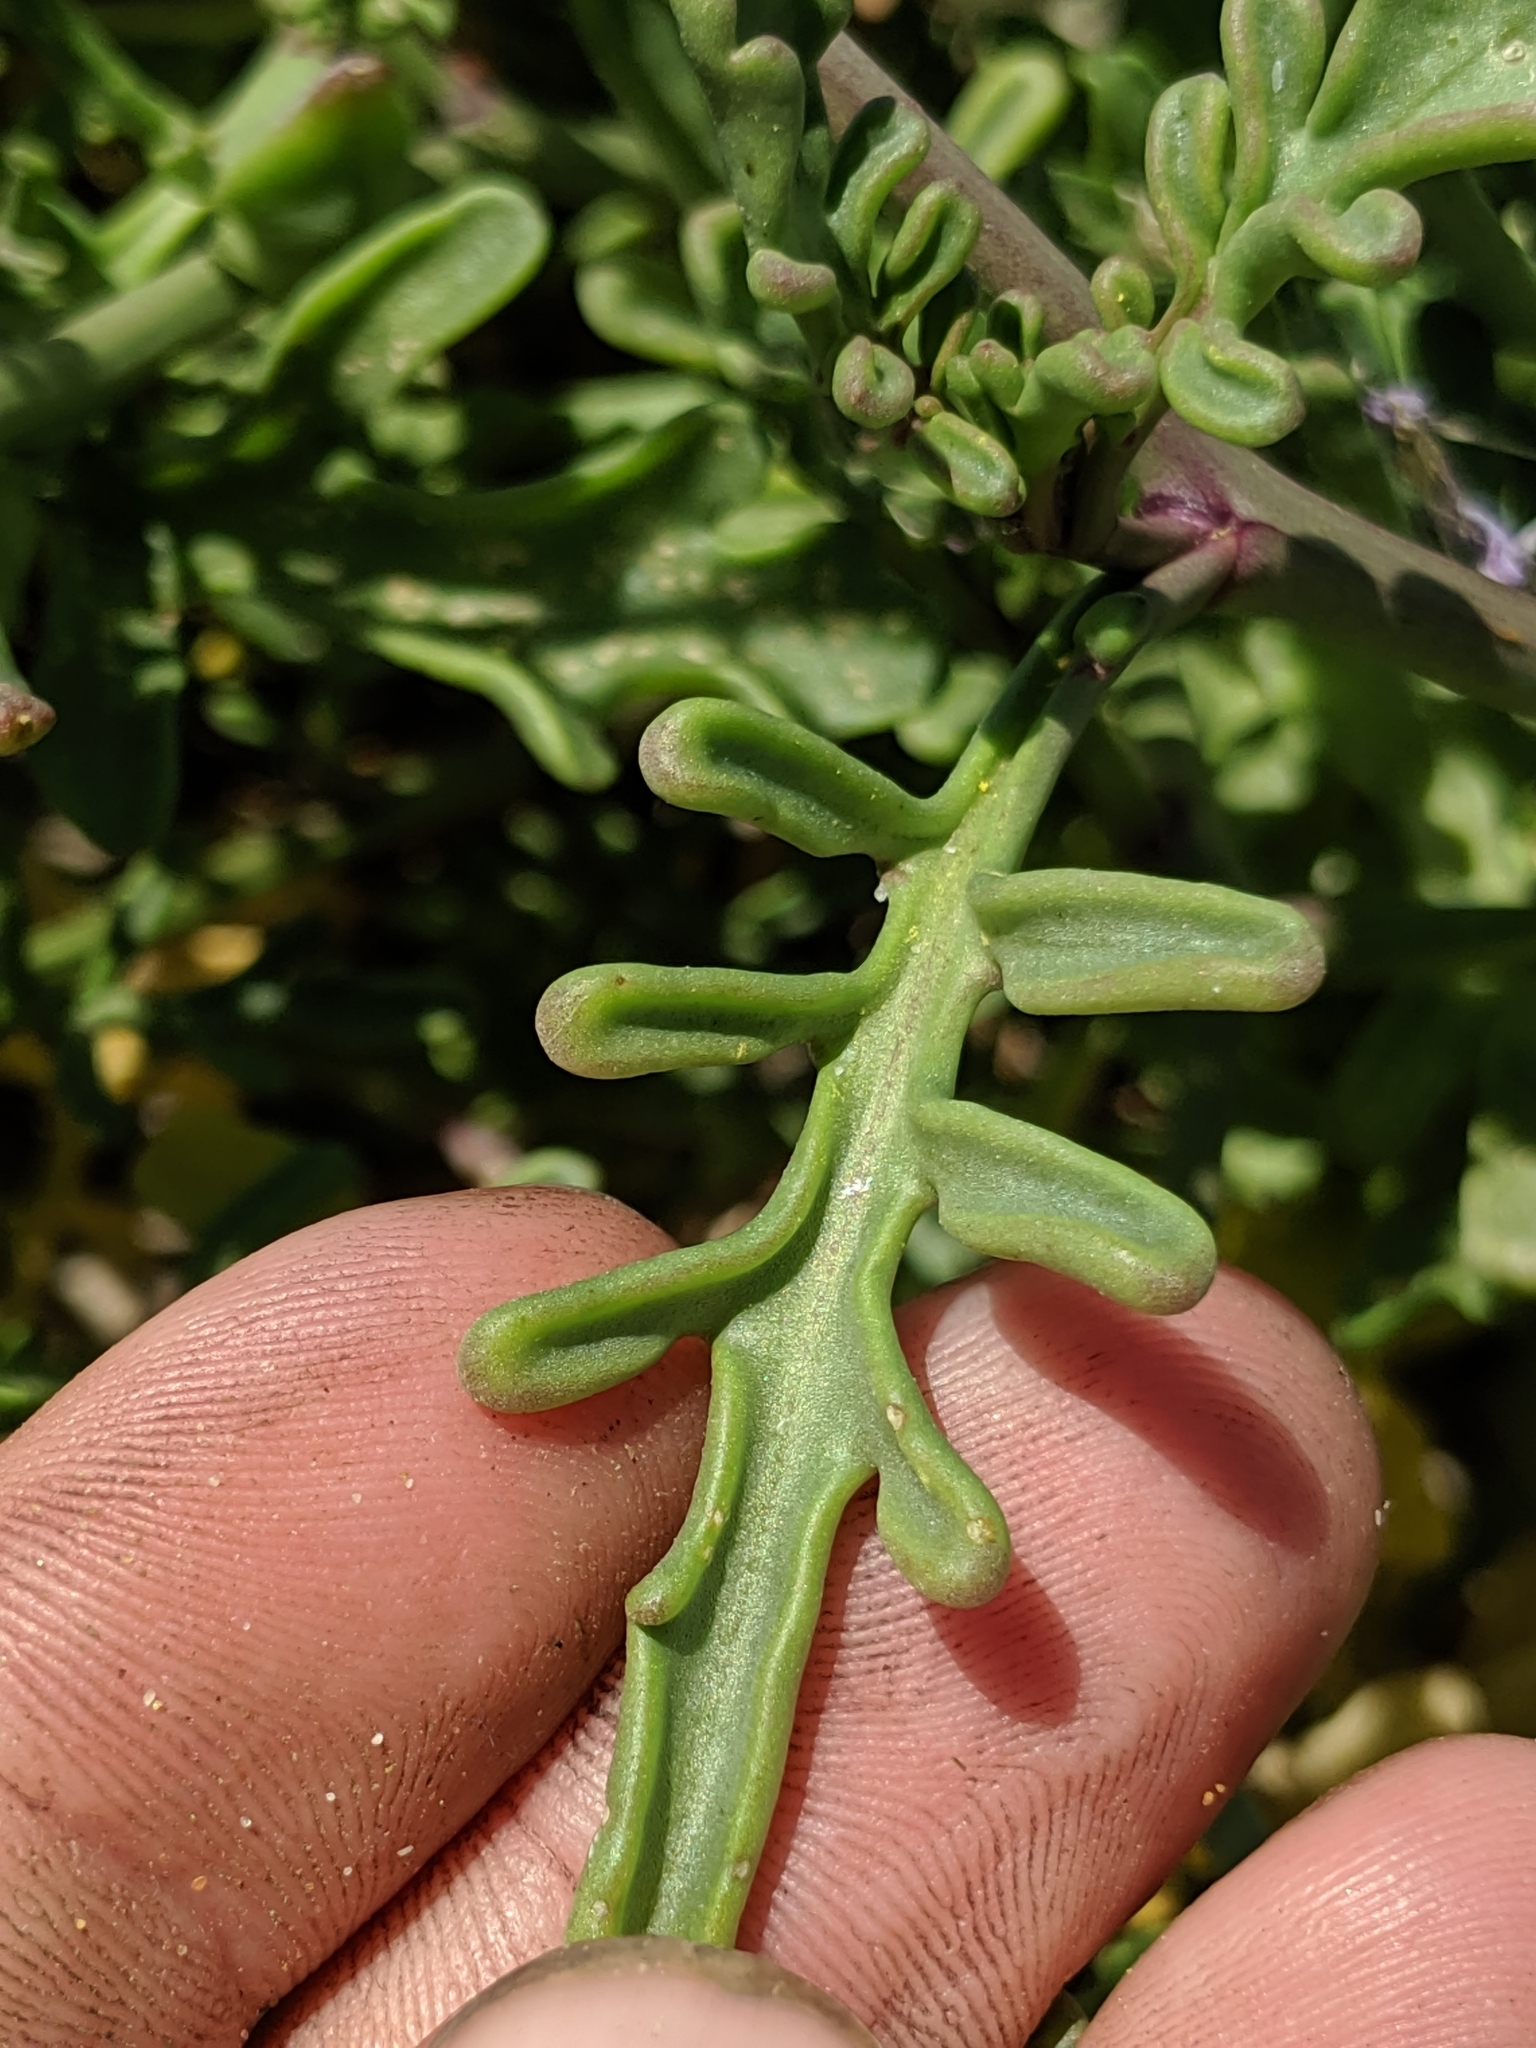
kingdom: Plantae
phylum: Tracheophyta
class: Magnoliopsida
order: Brassicales
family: Brassicaceae
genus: Cakile
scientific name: Cakile maritima
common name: Sea rocket
